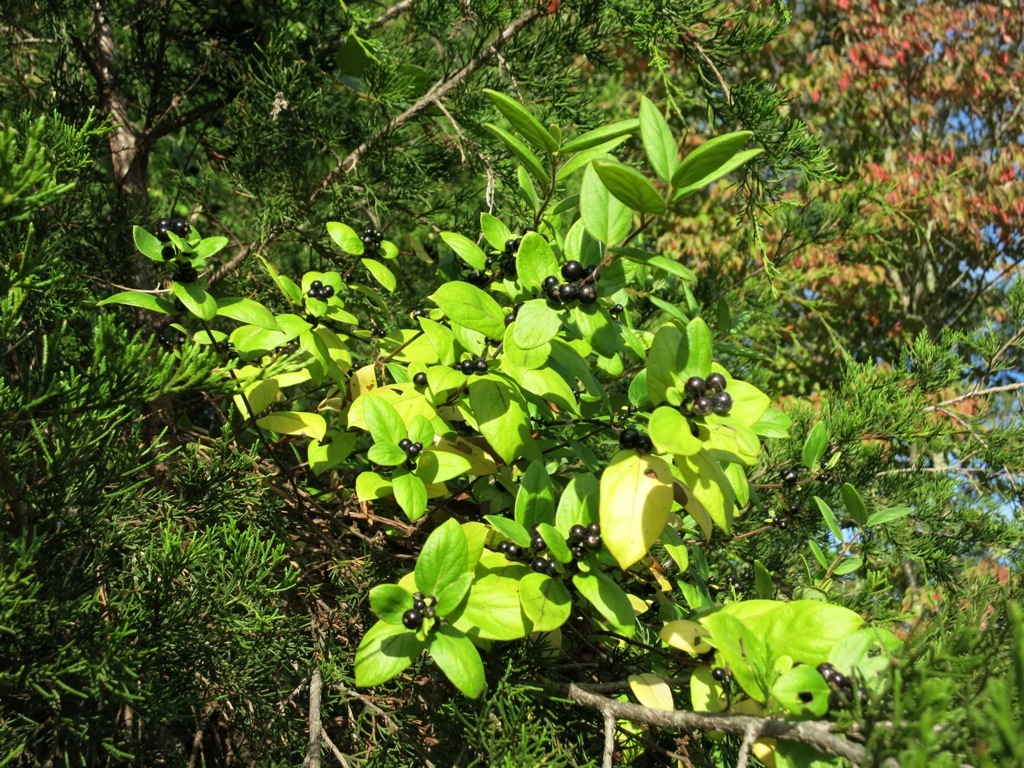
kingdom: Plantae
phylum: Tracheophyta
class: Magnoliopsida
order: Dipsacales
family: Caprifoliaceae
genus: Lonicera
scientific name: Lonicera japonica
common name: Japanese honeysuckle
